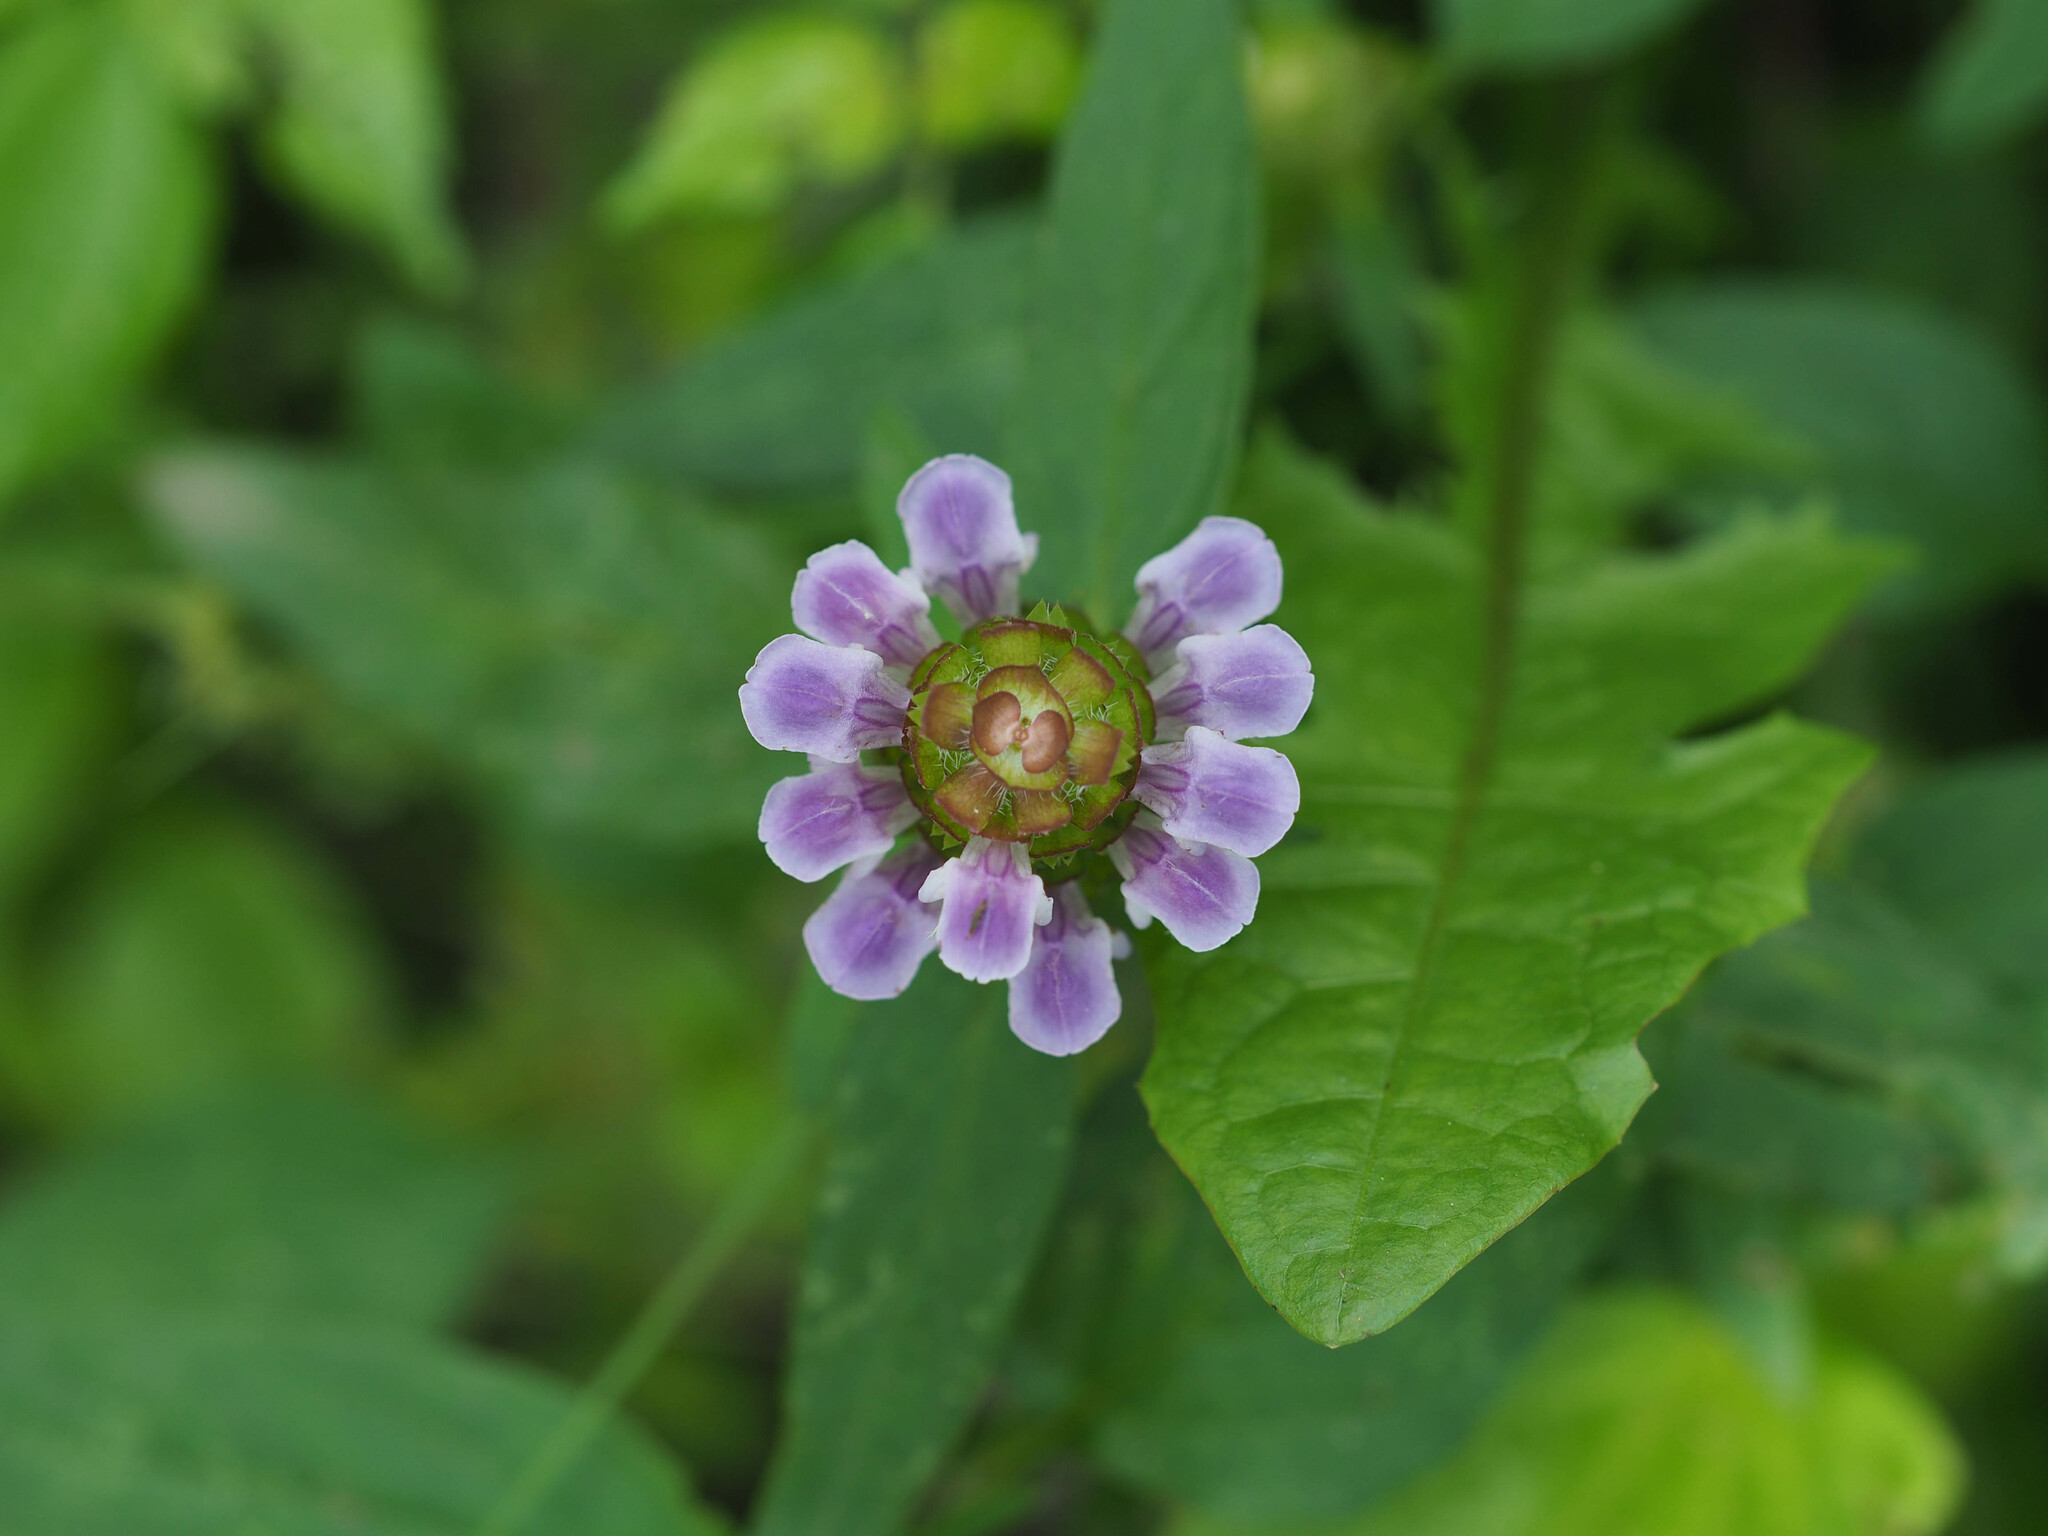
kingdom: Plantae
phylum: Tracheophyta
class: Magnoliopsida
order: Lamiales
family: Lamiaceae
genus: Prunella
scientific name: Prunella vulgaris
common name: Heal-all
